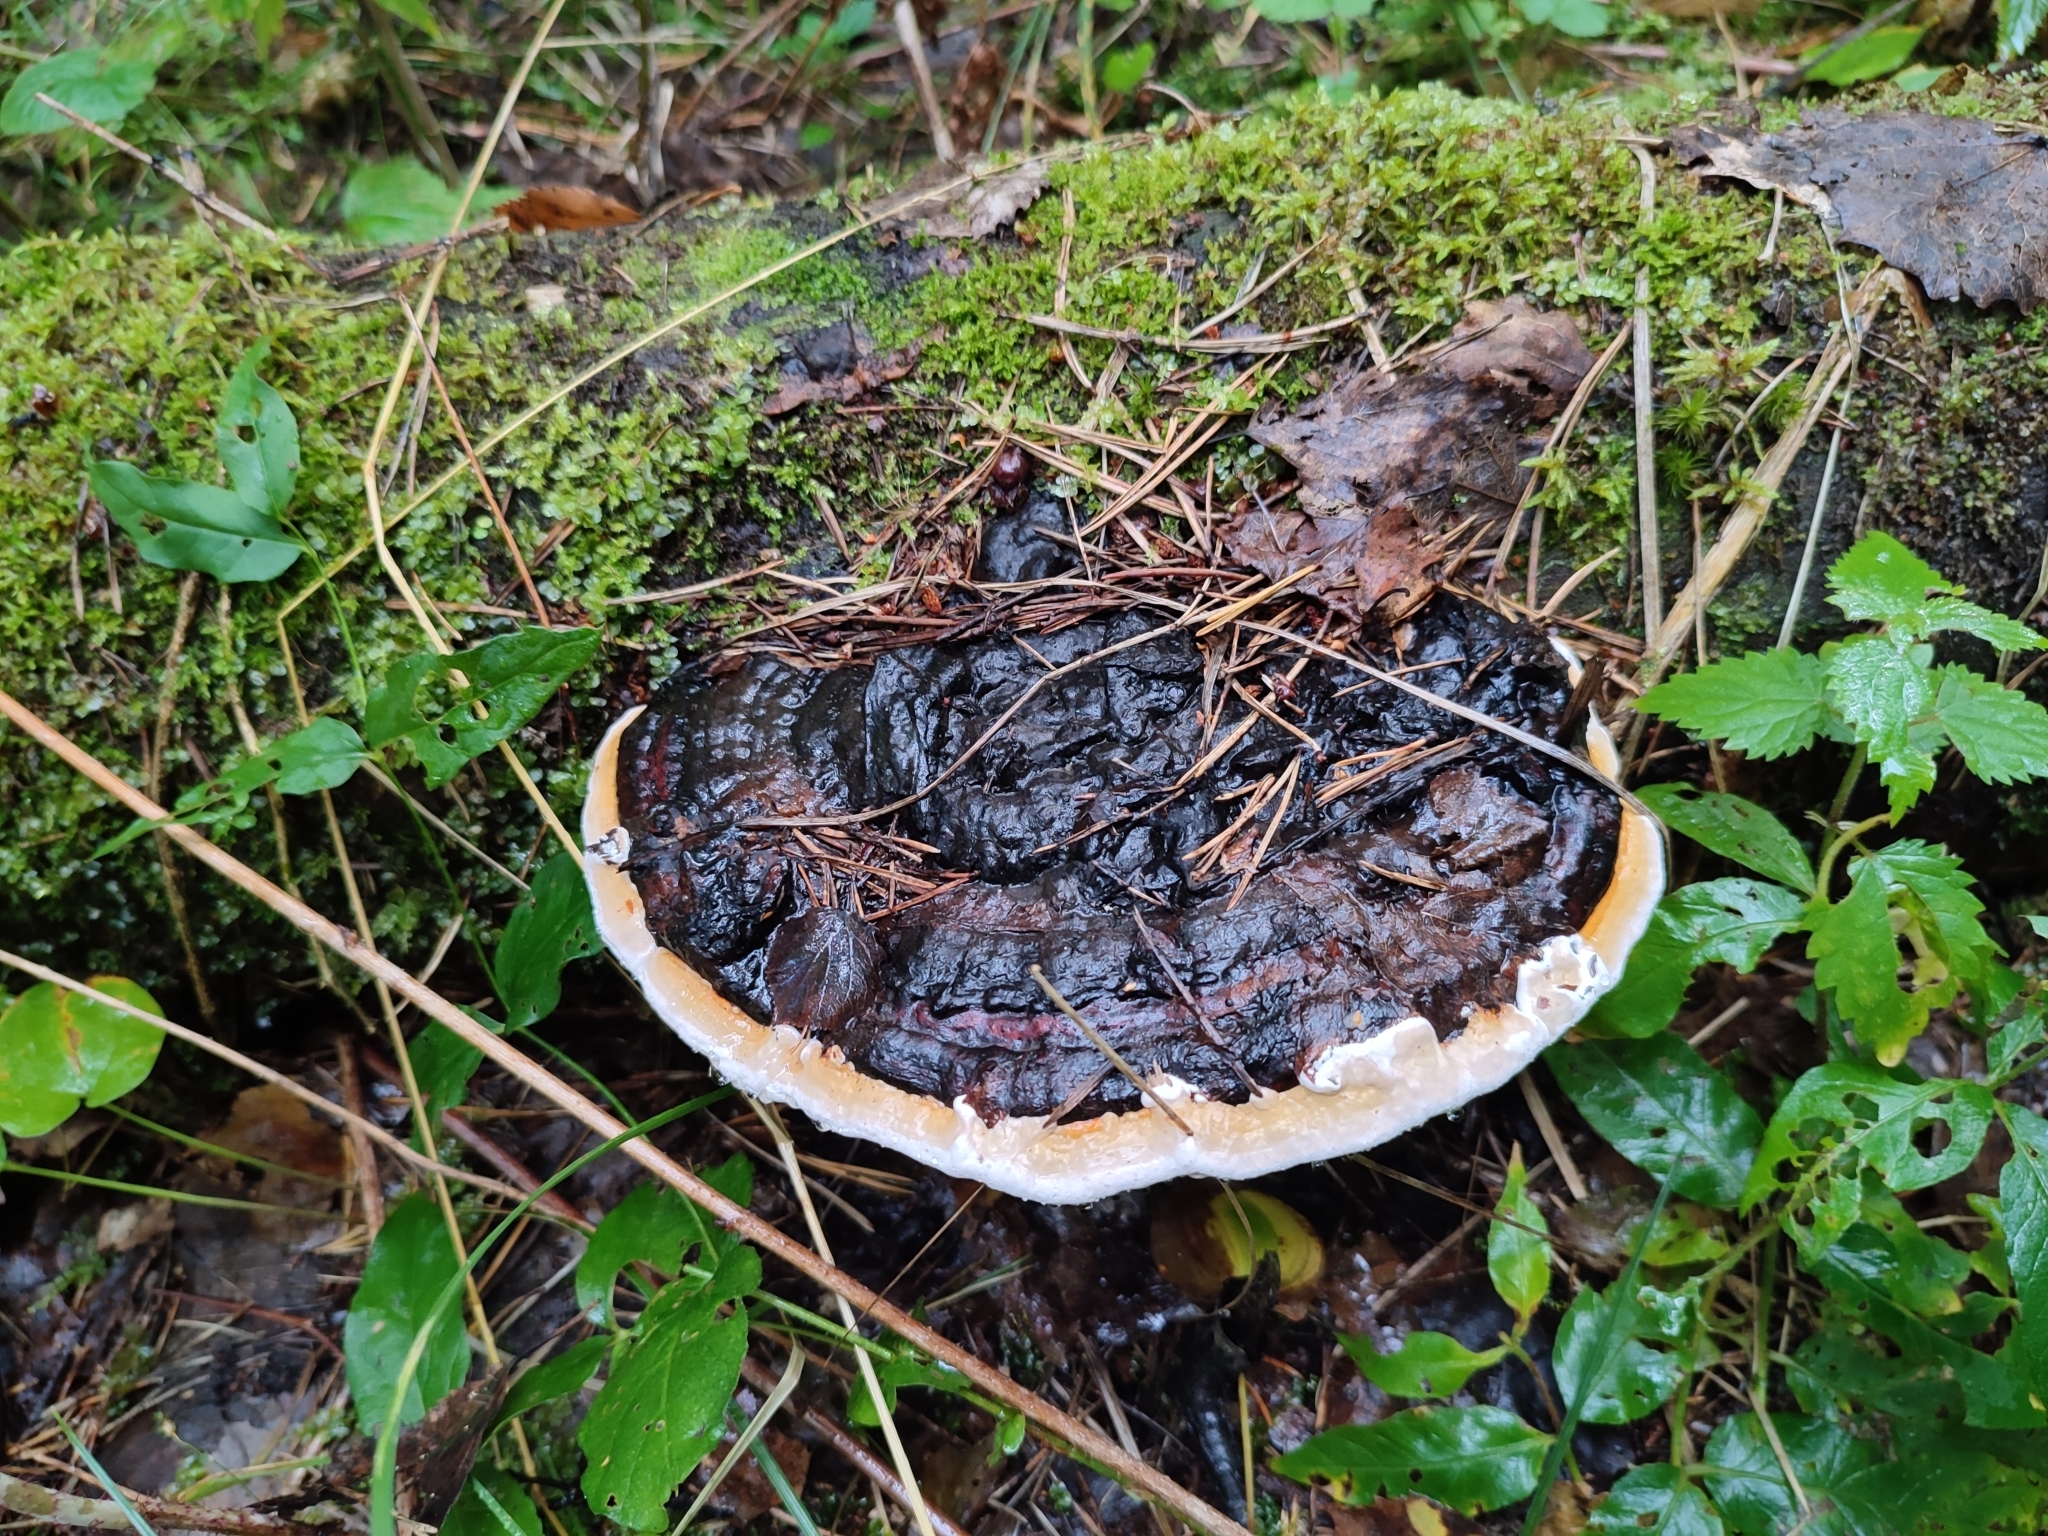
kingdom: Fungi
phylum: Basidiomycota
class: Agaricomycetes
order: Polyporales
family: Fomitopsidaceae
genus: Fomitopsis
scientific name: Fomitopsis pinicola
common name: Red-belted bracket
